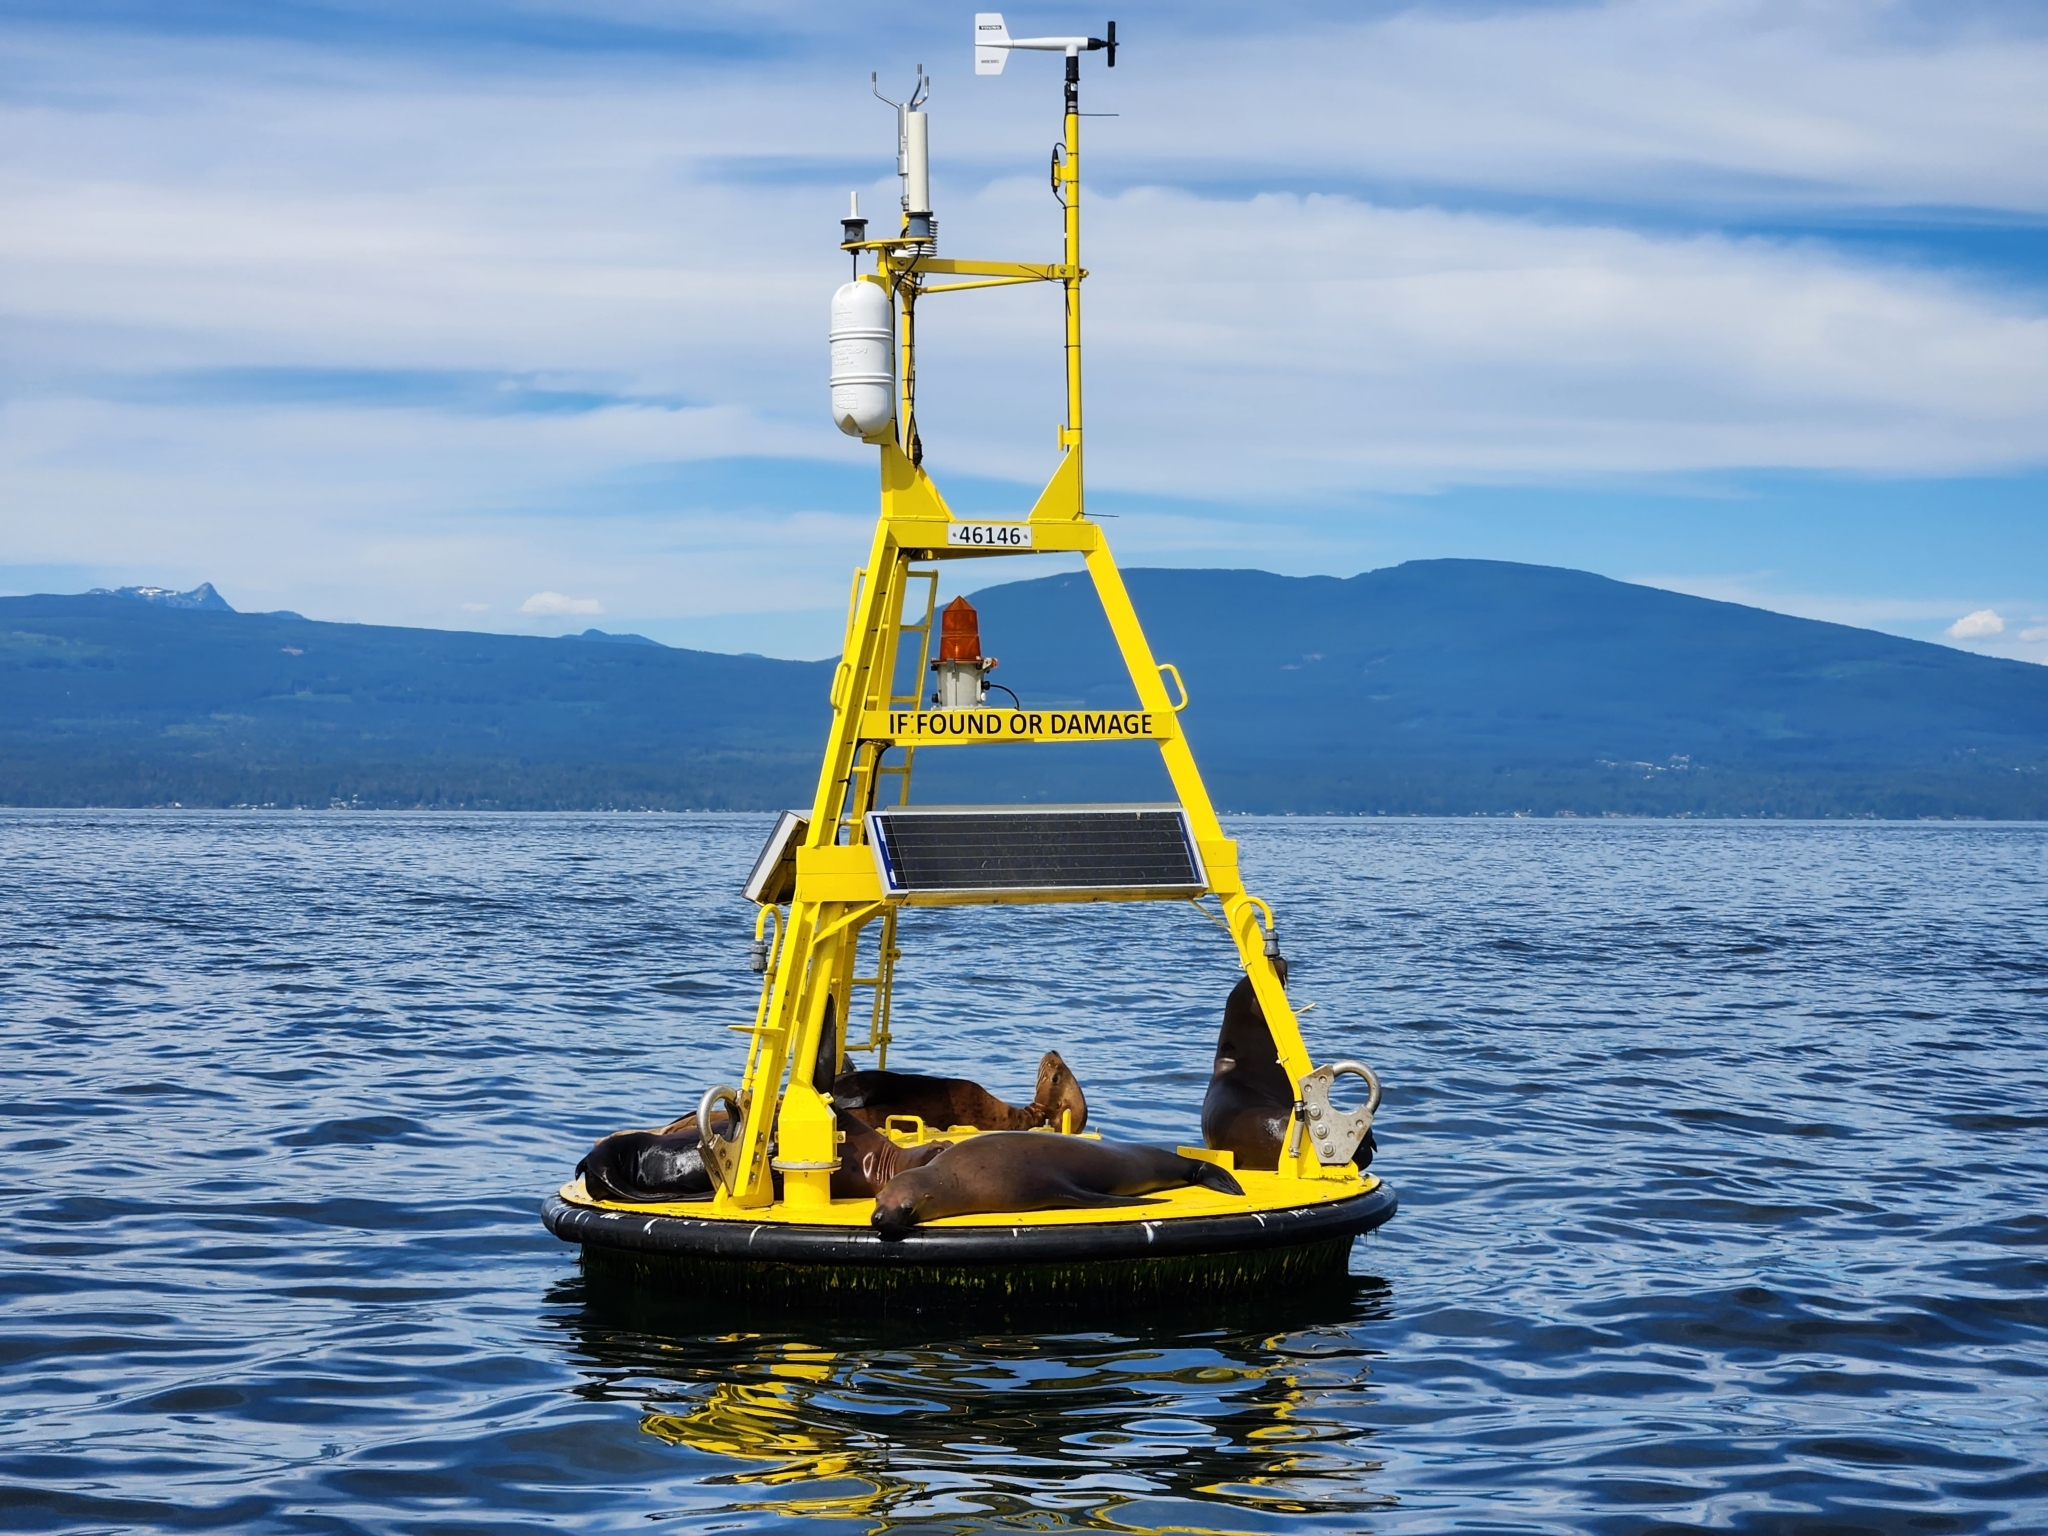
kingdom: Animalia
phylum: Chordata
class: Mammalia
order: Carnivora
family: Otariidae
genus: Eumetopias
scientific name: Eumetopias jubatus
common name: Steller sea lion
